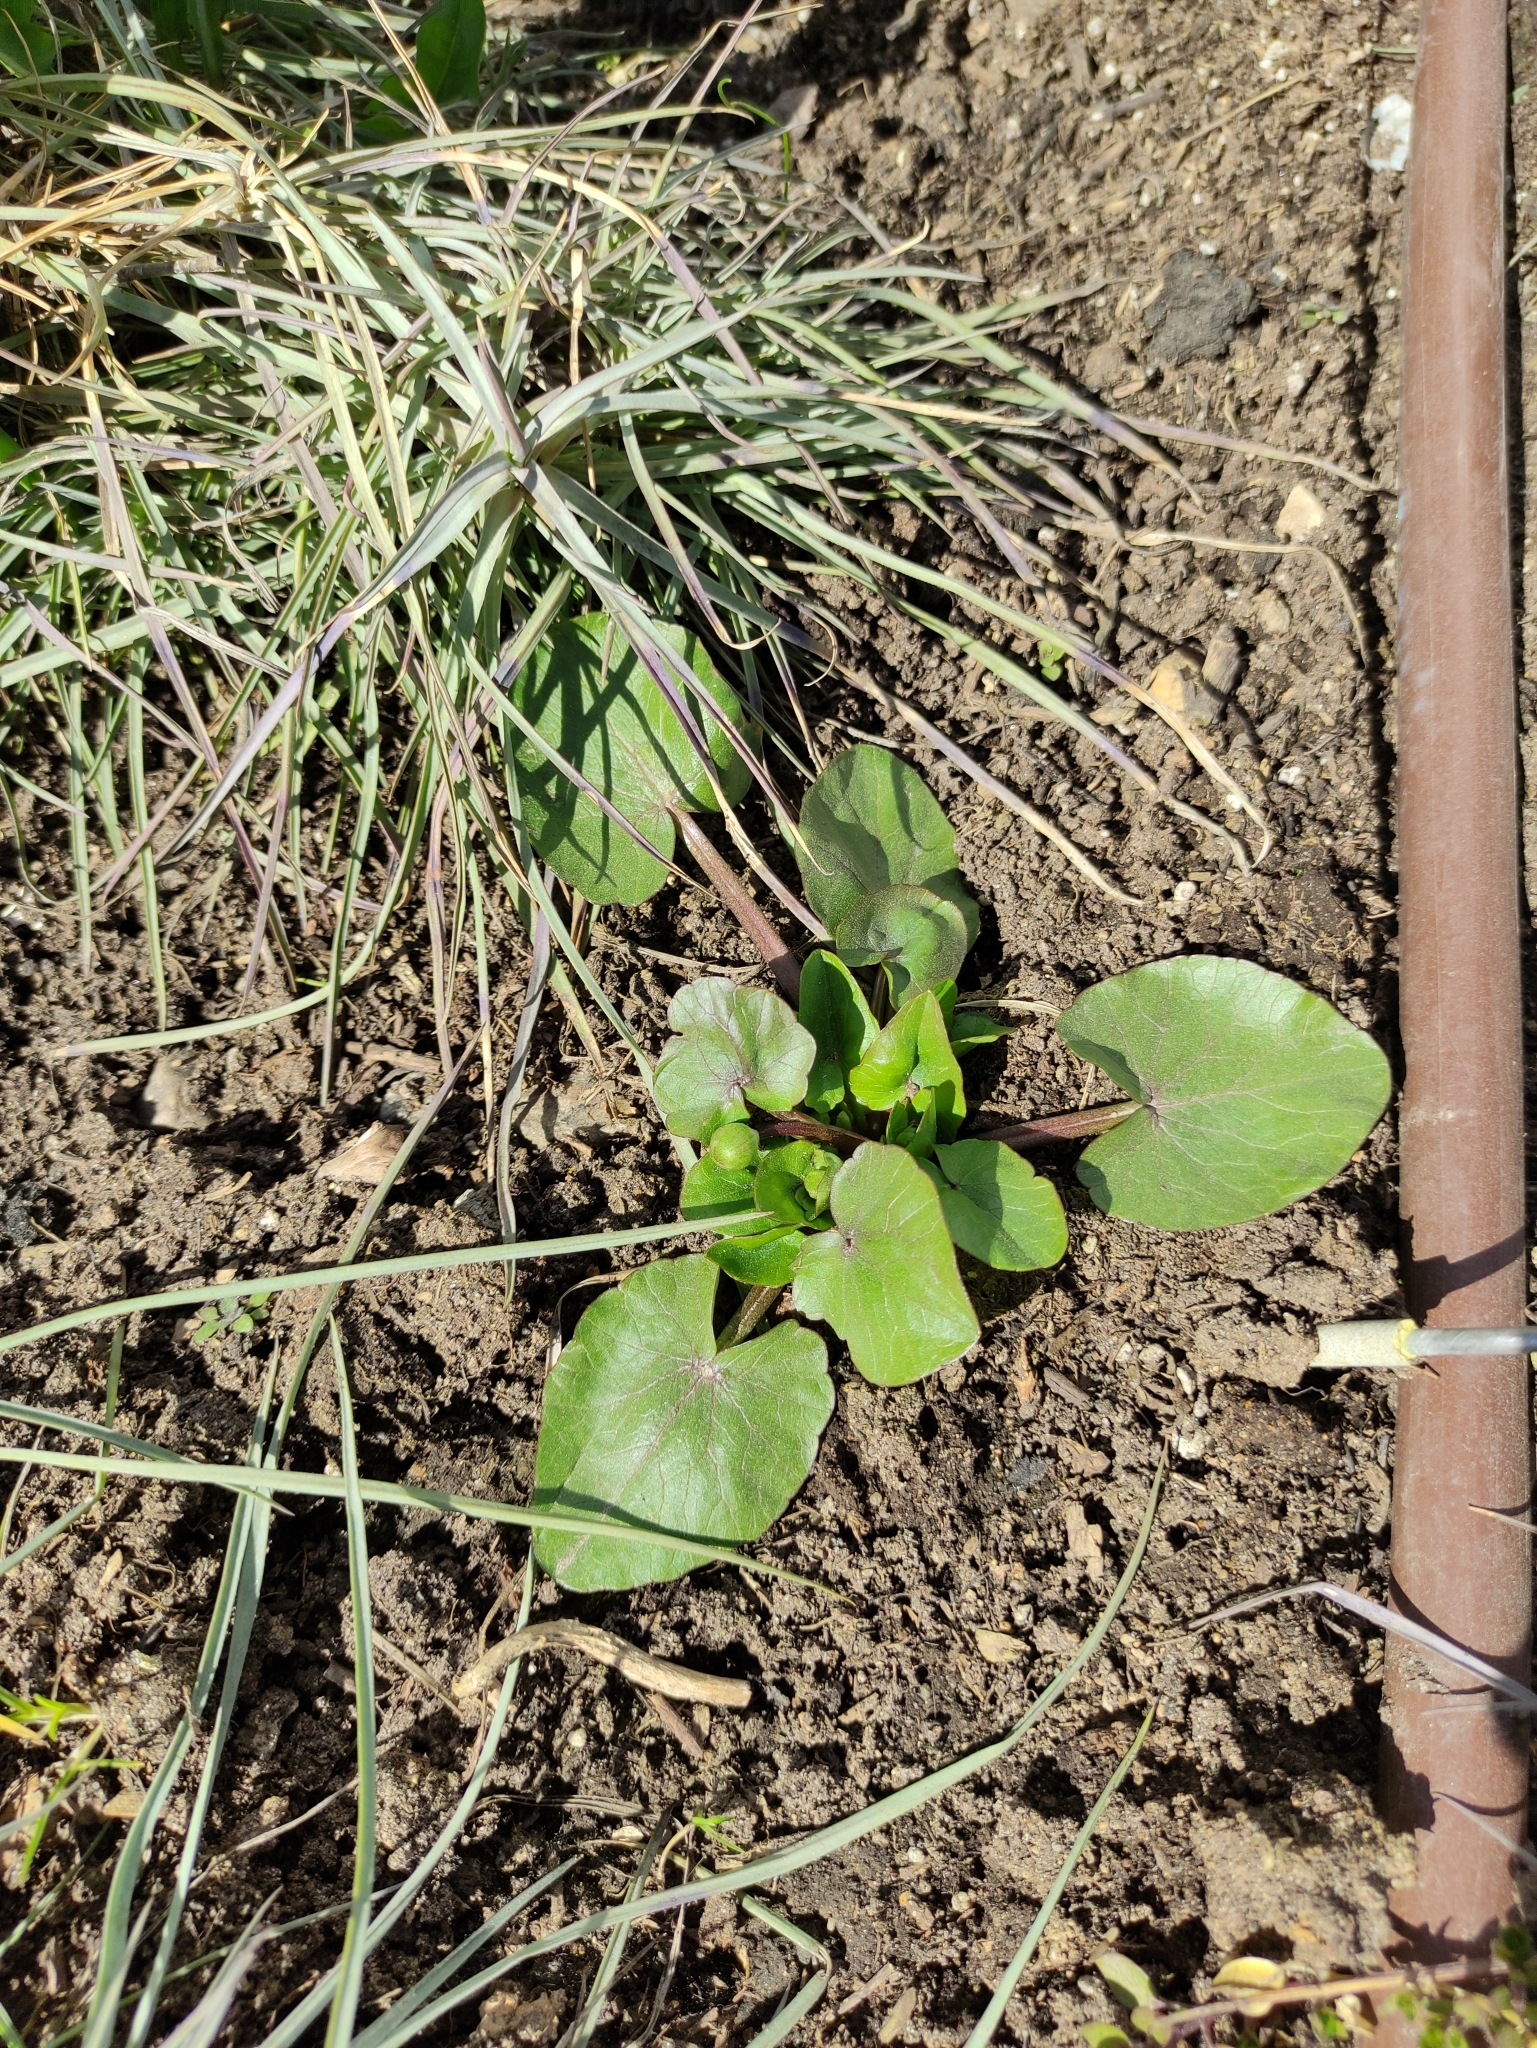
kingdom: Plantae
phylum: Tracheophyta
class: Magnoliopsida
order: Ranunculales
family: Ranunculaceae
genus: Ficaria
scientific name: Ficaria verna
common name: Lesser celandine
